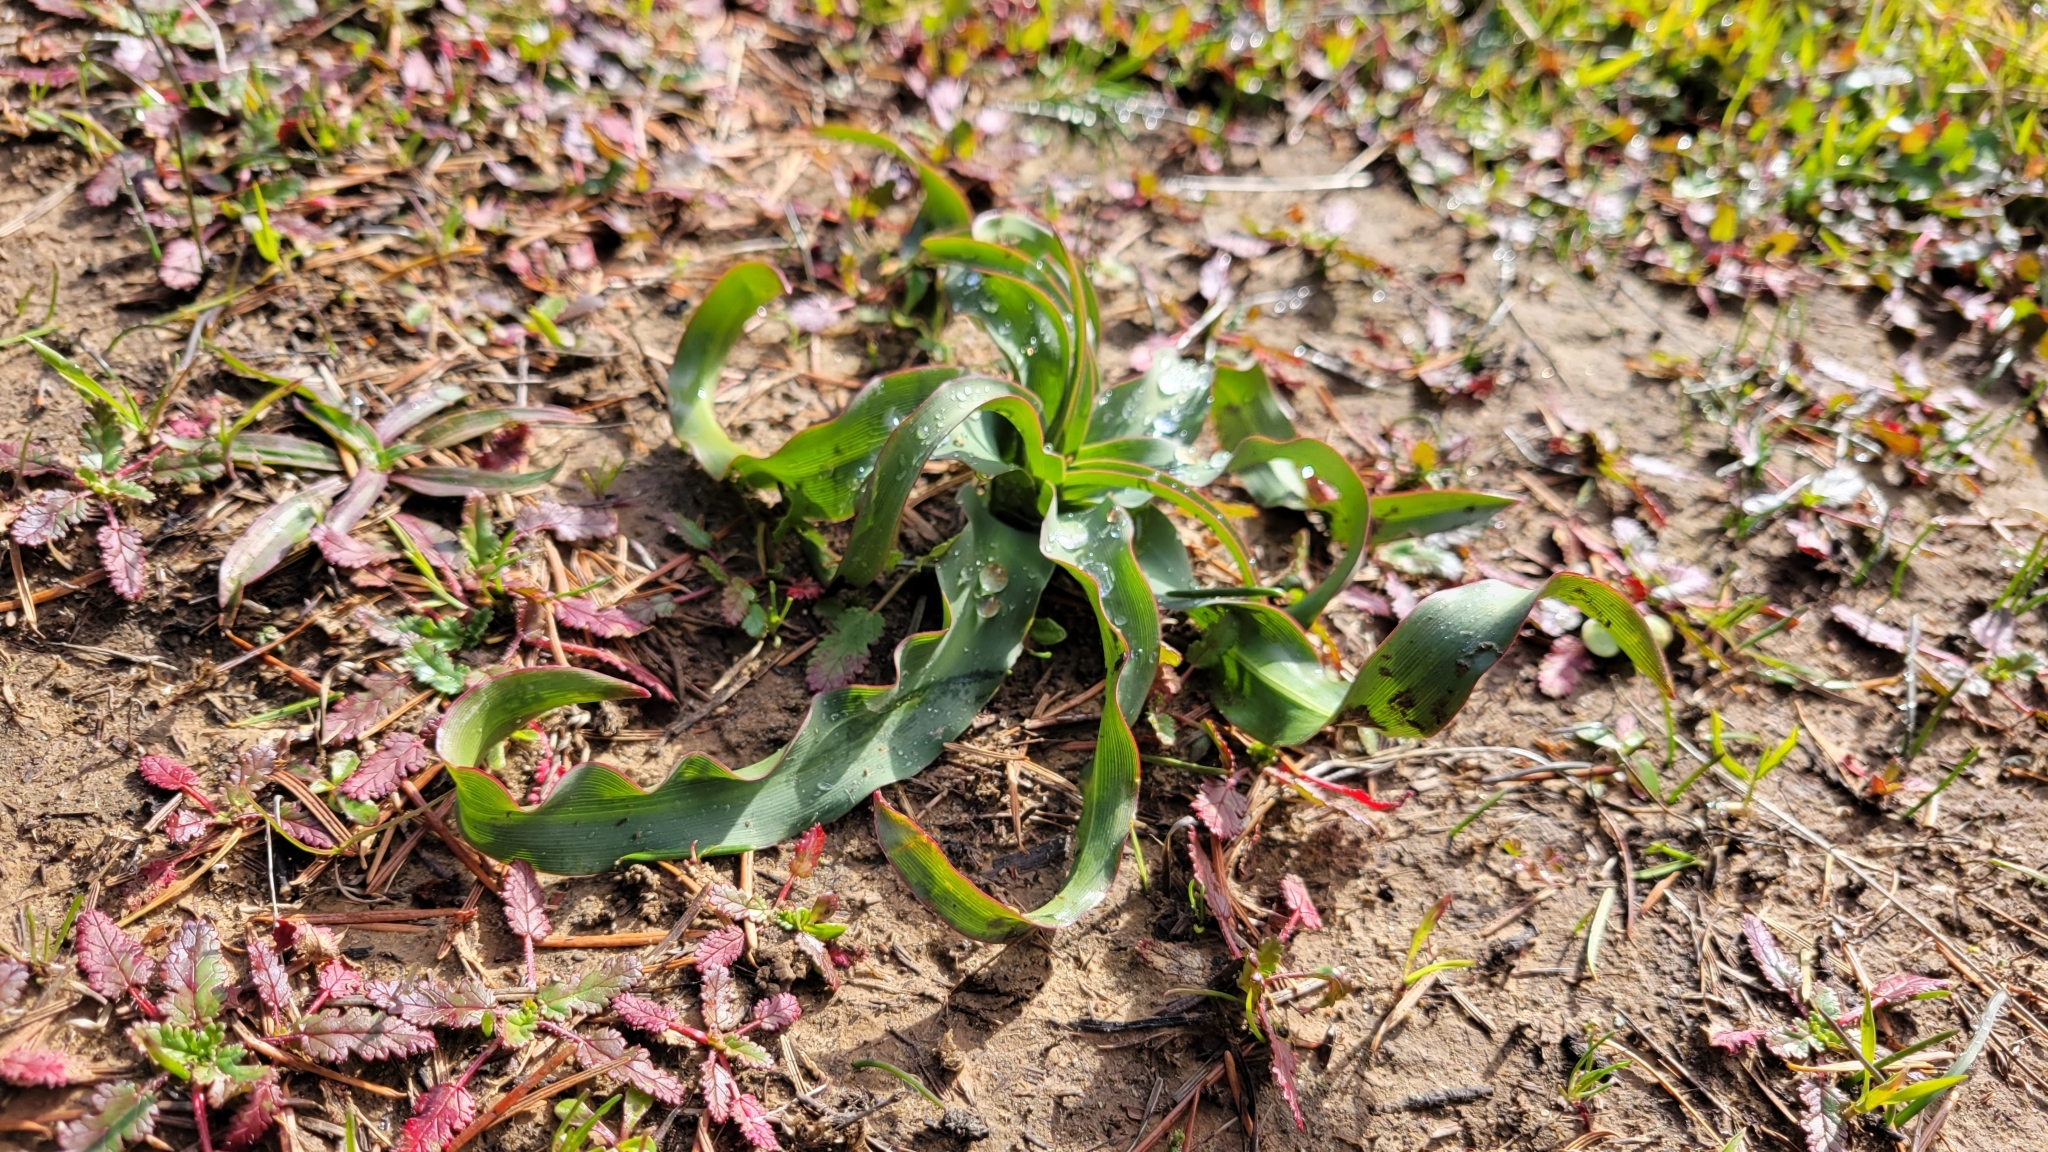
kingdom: Plantae
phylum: Tracheophyta
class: Liliopsida
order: Asparagales
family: Asparagaceae
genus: Chlorogalum
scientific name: Chlorogalum pomeridianum
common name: Amole
